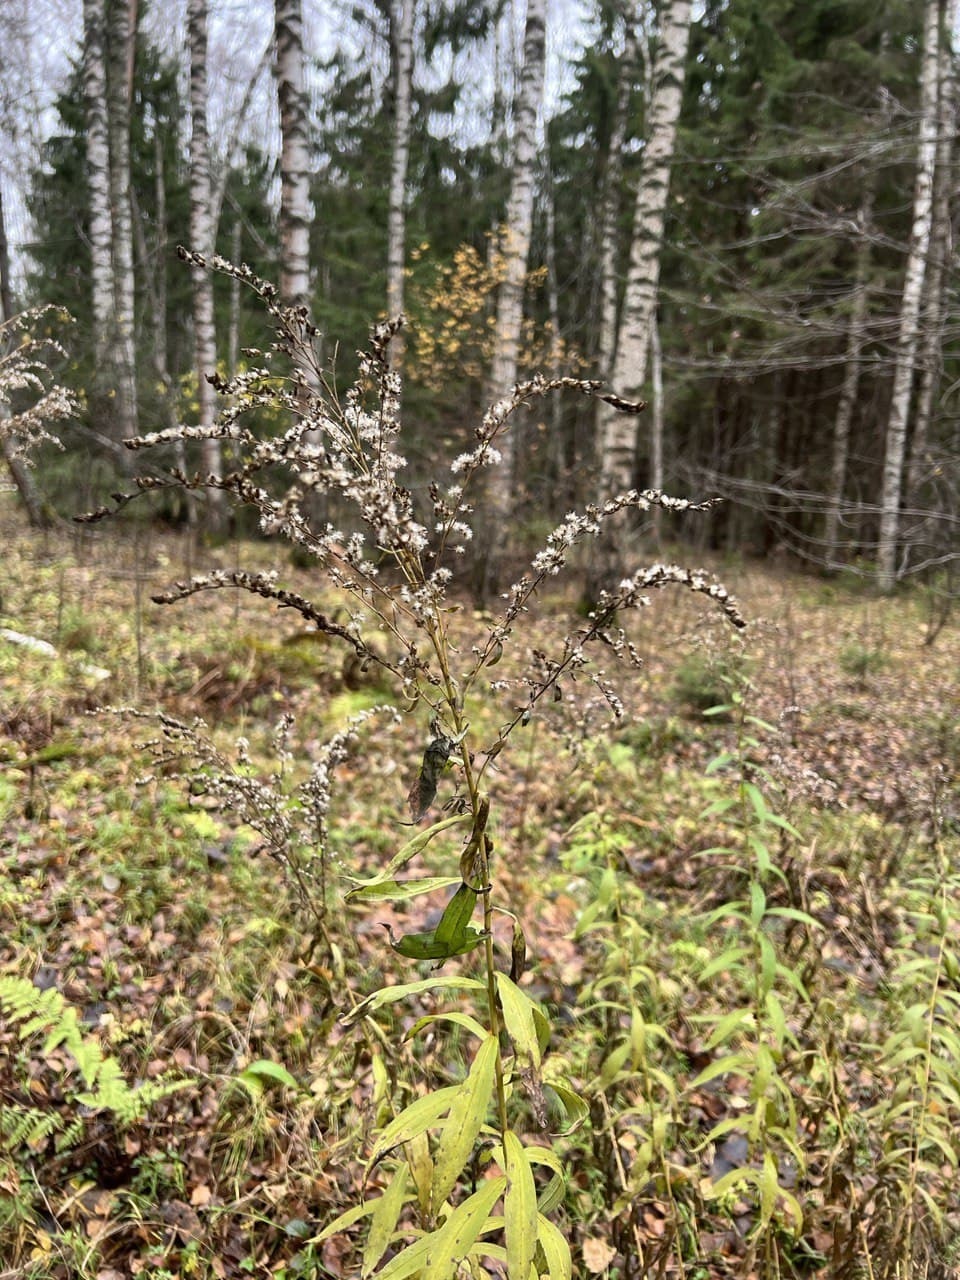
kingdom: Plantae
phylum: Tracheophyta
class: Magnoliopsida
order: Asterales
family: Asteraceae
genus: Solidago
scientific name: Solidago canadensis
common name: Canada goldenrod
